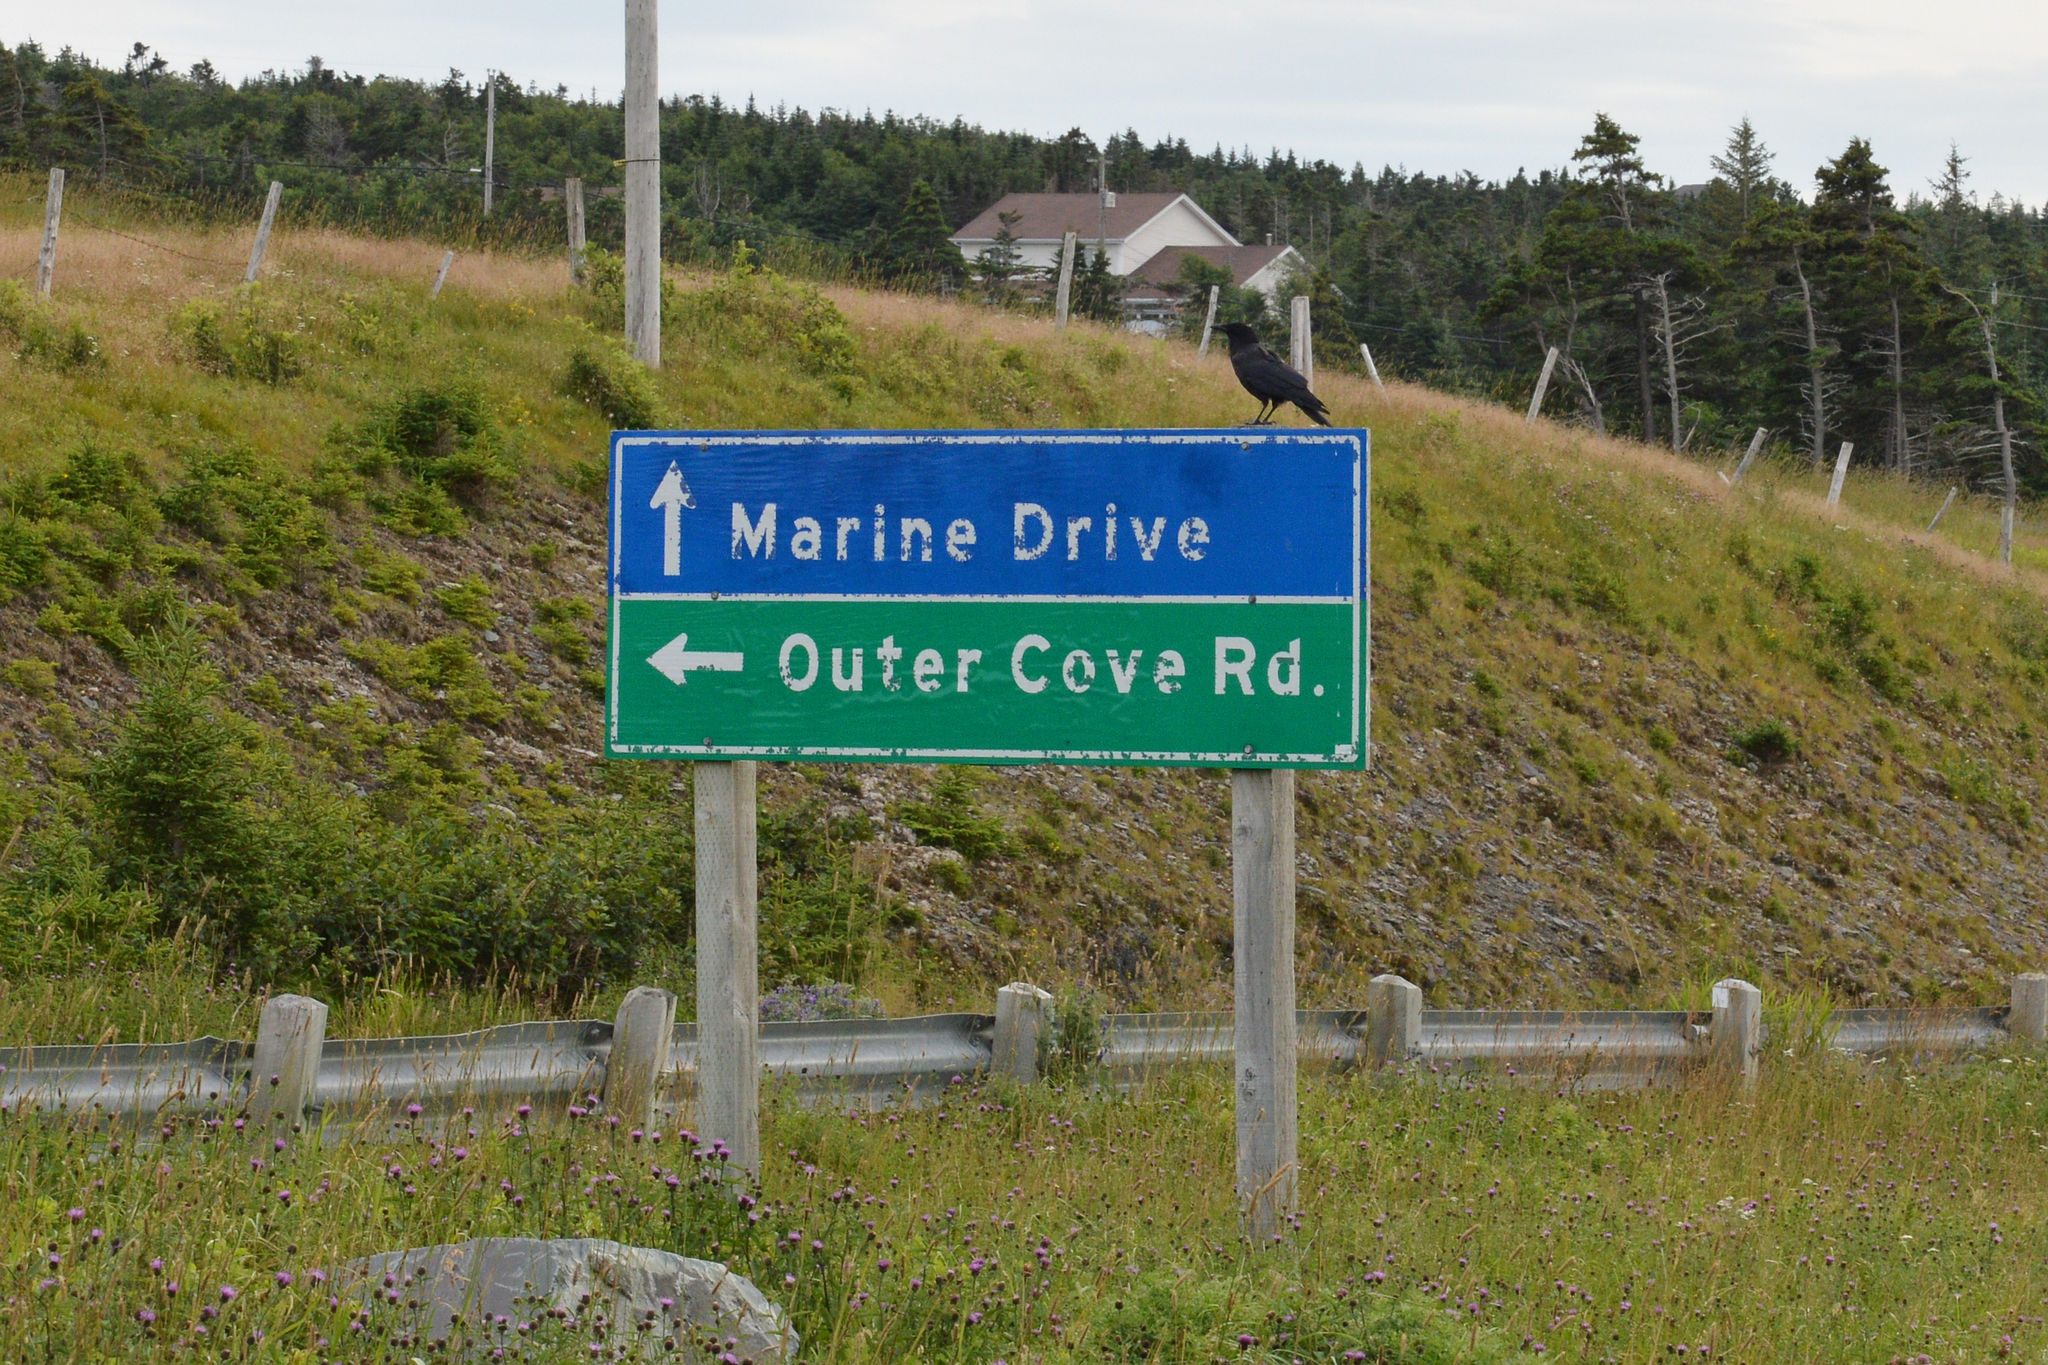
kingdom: Animalia
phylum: Chordata
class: Aves
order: Passeriformes
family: Corvidae
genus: Corvus
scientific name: Corvus brachyrhynchos
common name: American crow
